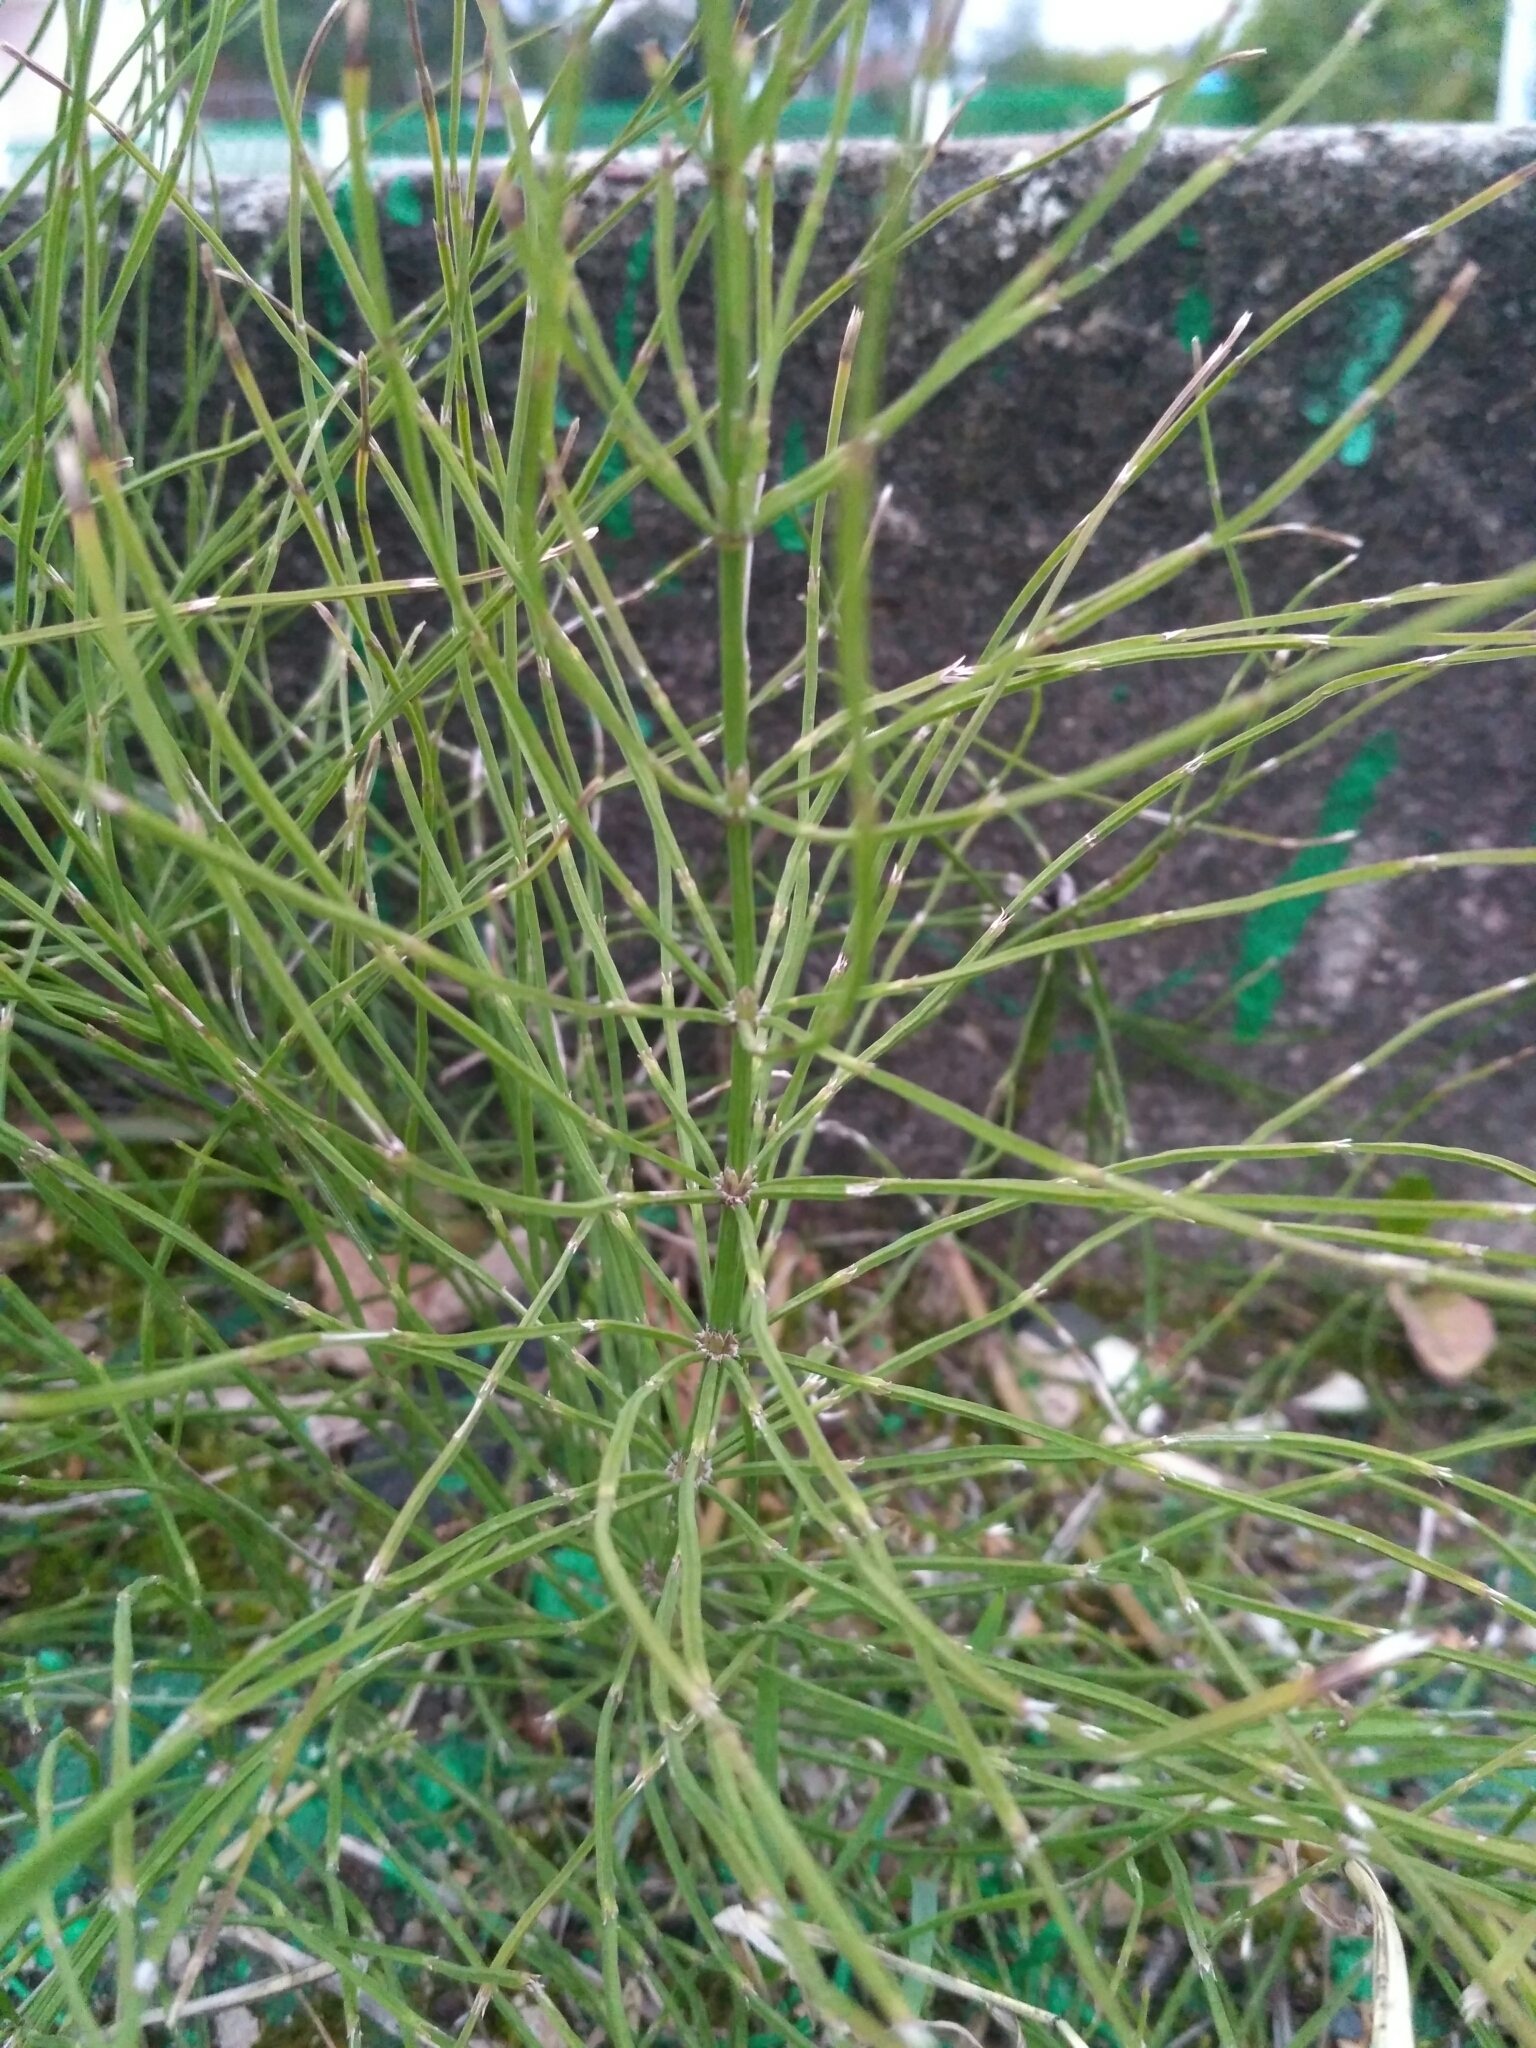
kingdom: Plantae
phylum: Tracheophyta
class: Polypodiopsida
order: Equisetales
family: Equisetaceae
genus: Equisetum
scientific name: Equisetum arvense
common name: Field horsetail
